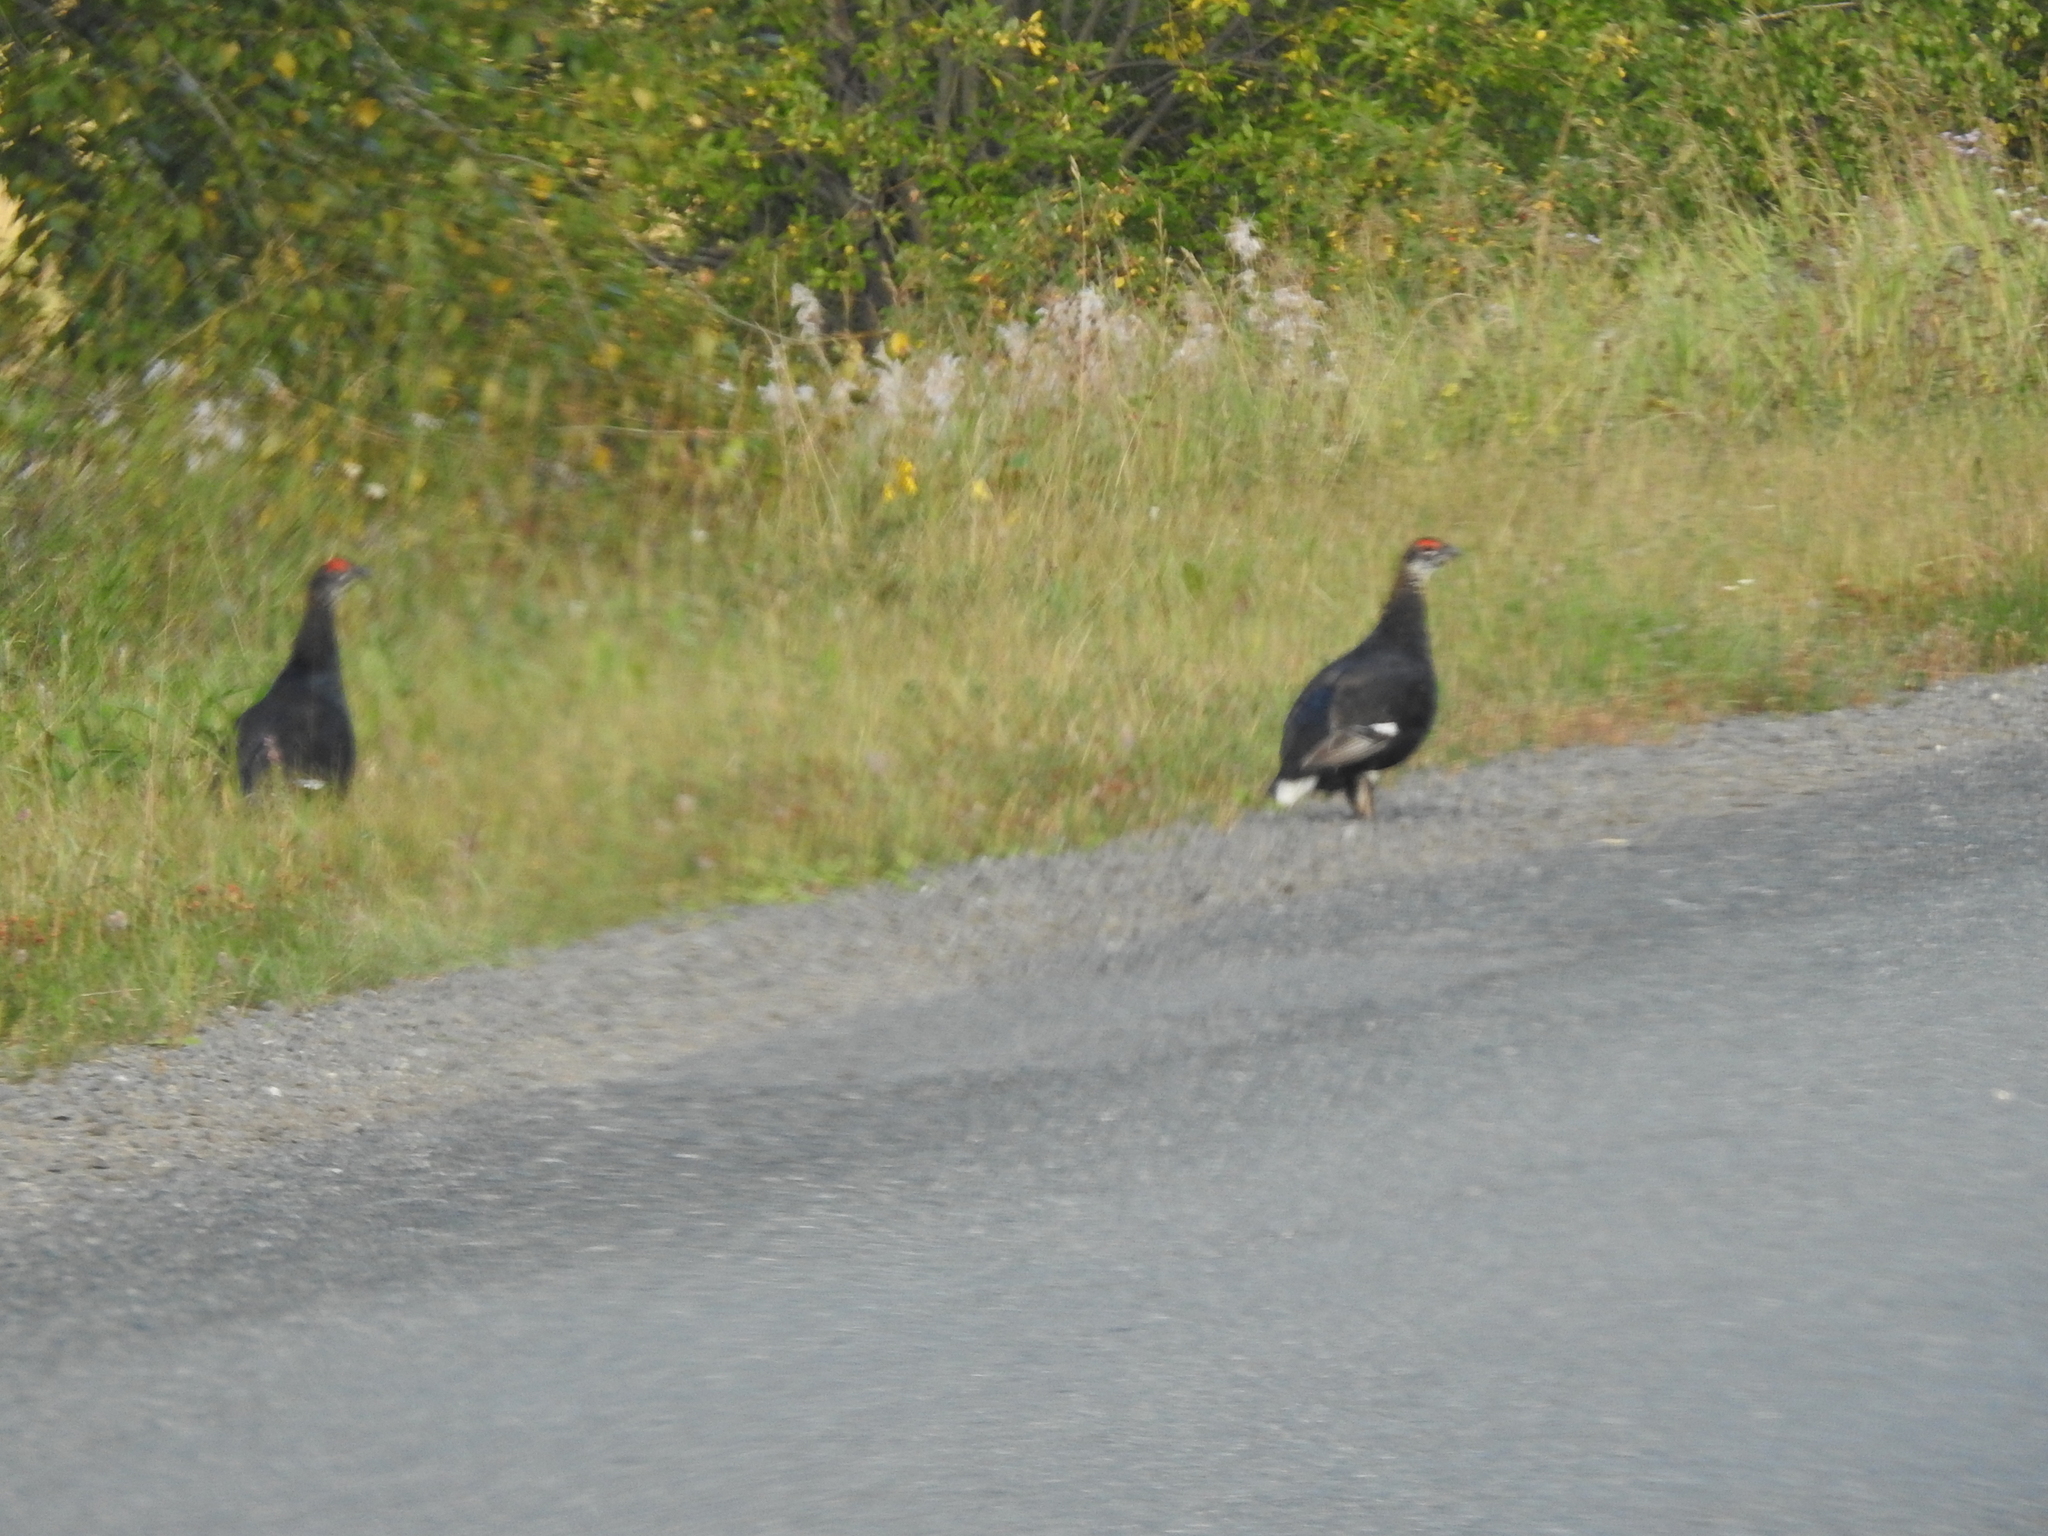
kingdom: Animalia
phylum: Chordata
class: Aves
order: Galliformes
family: Phasianidae
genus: Lyrurus
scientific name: Lyrurus tetrix
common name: Black grouse
